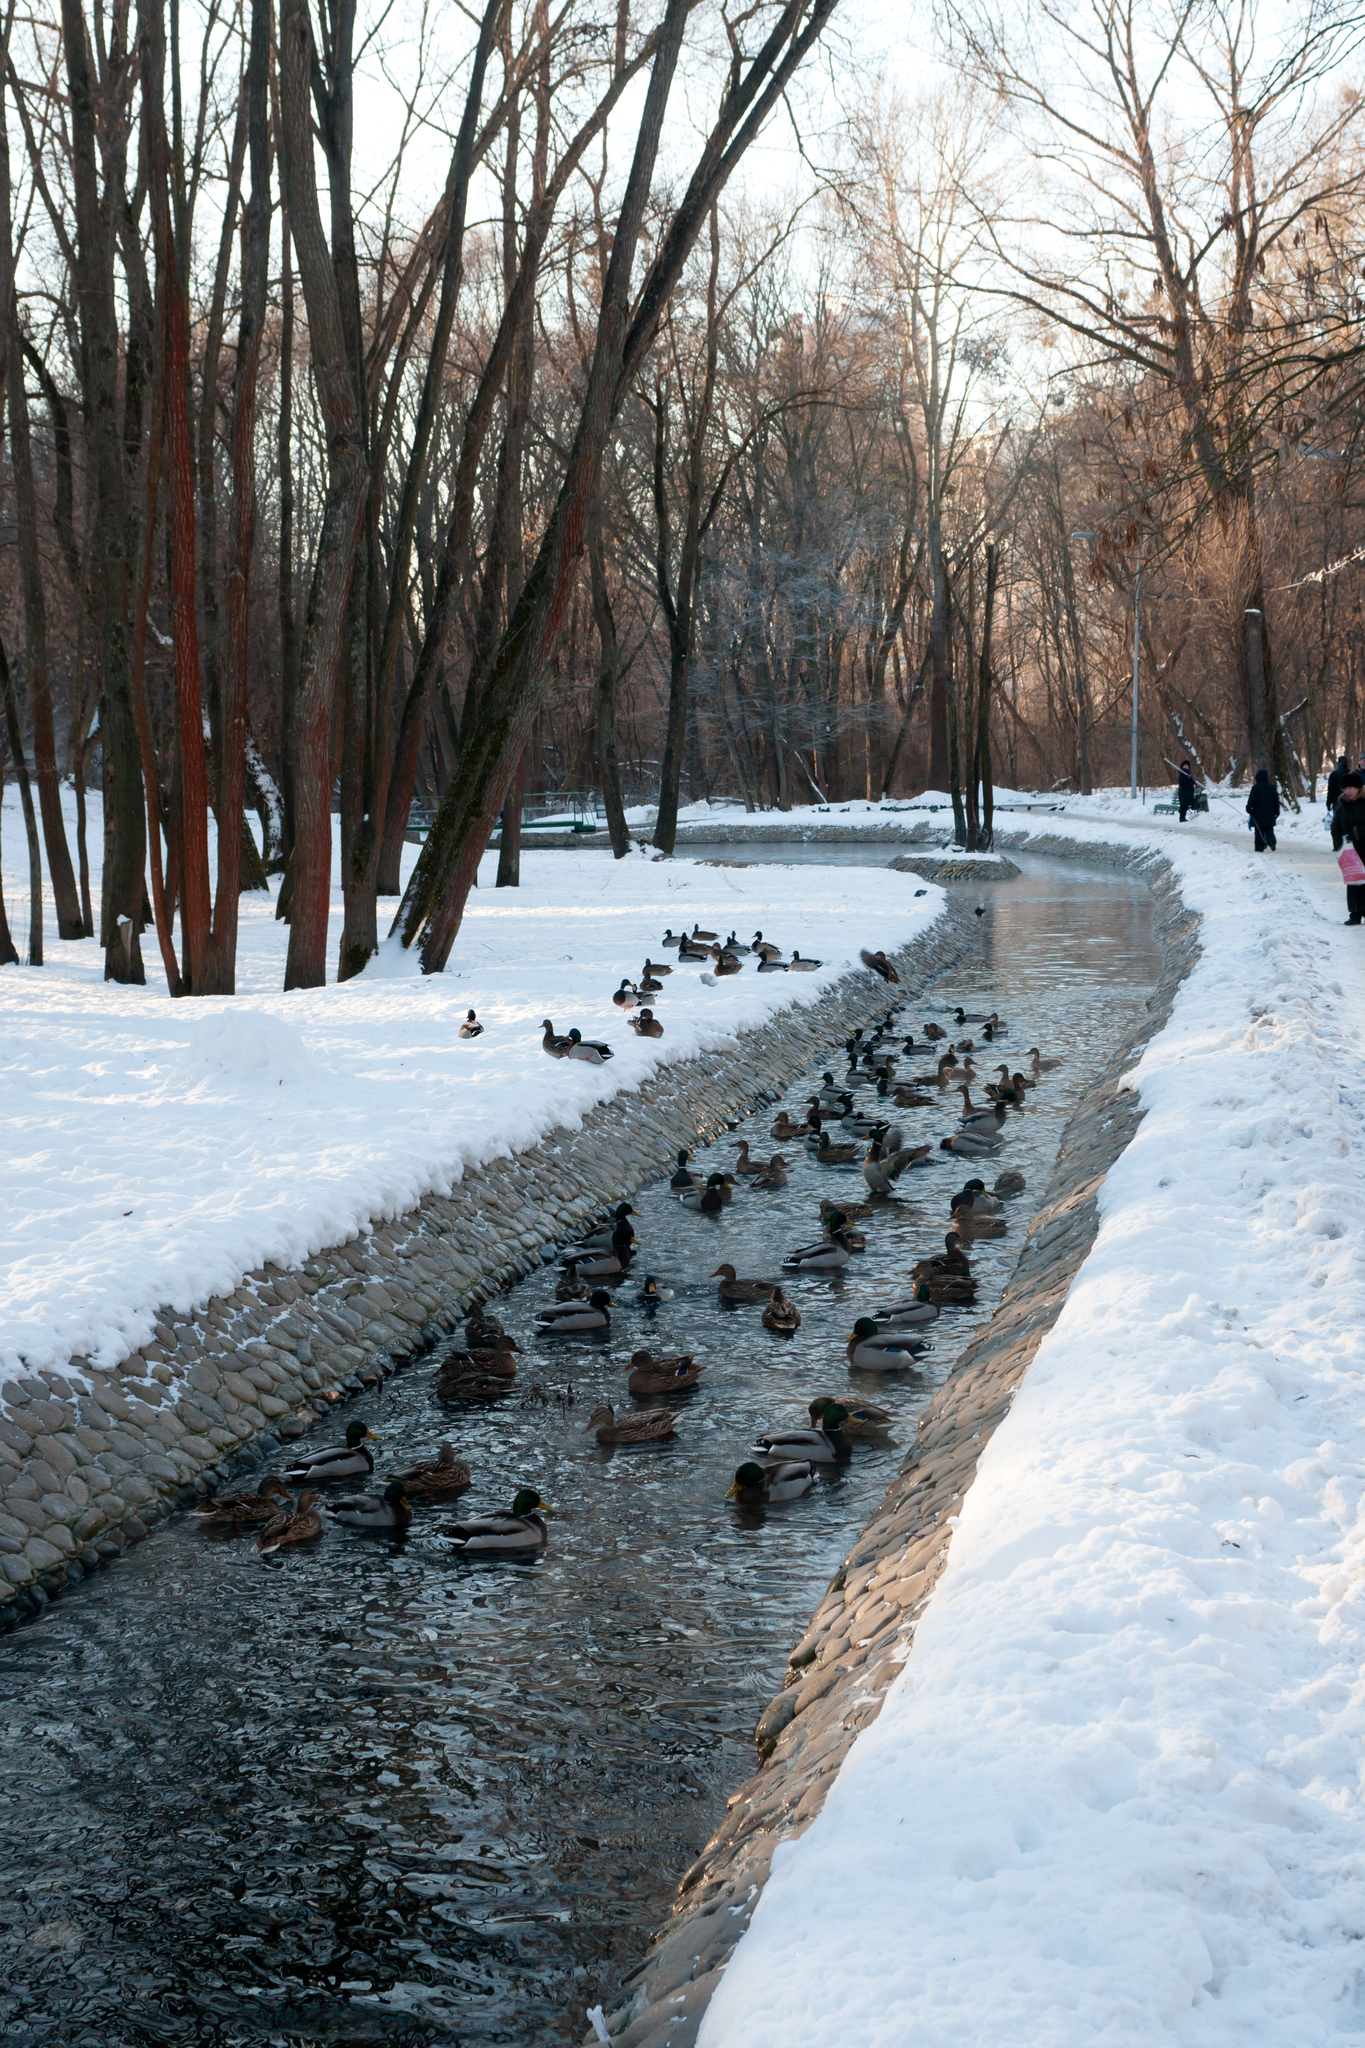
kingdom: Animalia
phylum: Chordata
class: Aves
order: Anseriformes
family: Anatidae
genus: Anas
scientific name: Anas platyrhynchos
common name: Mallard
